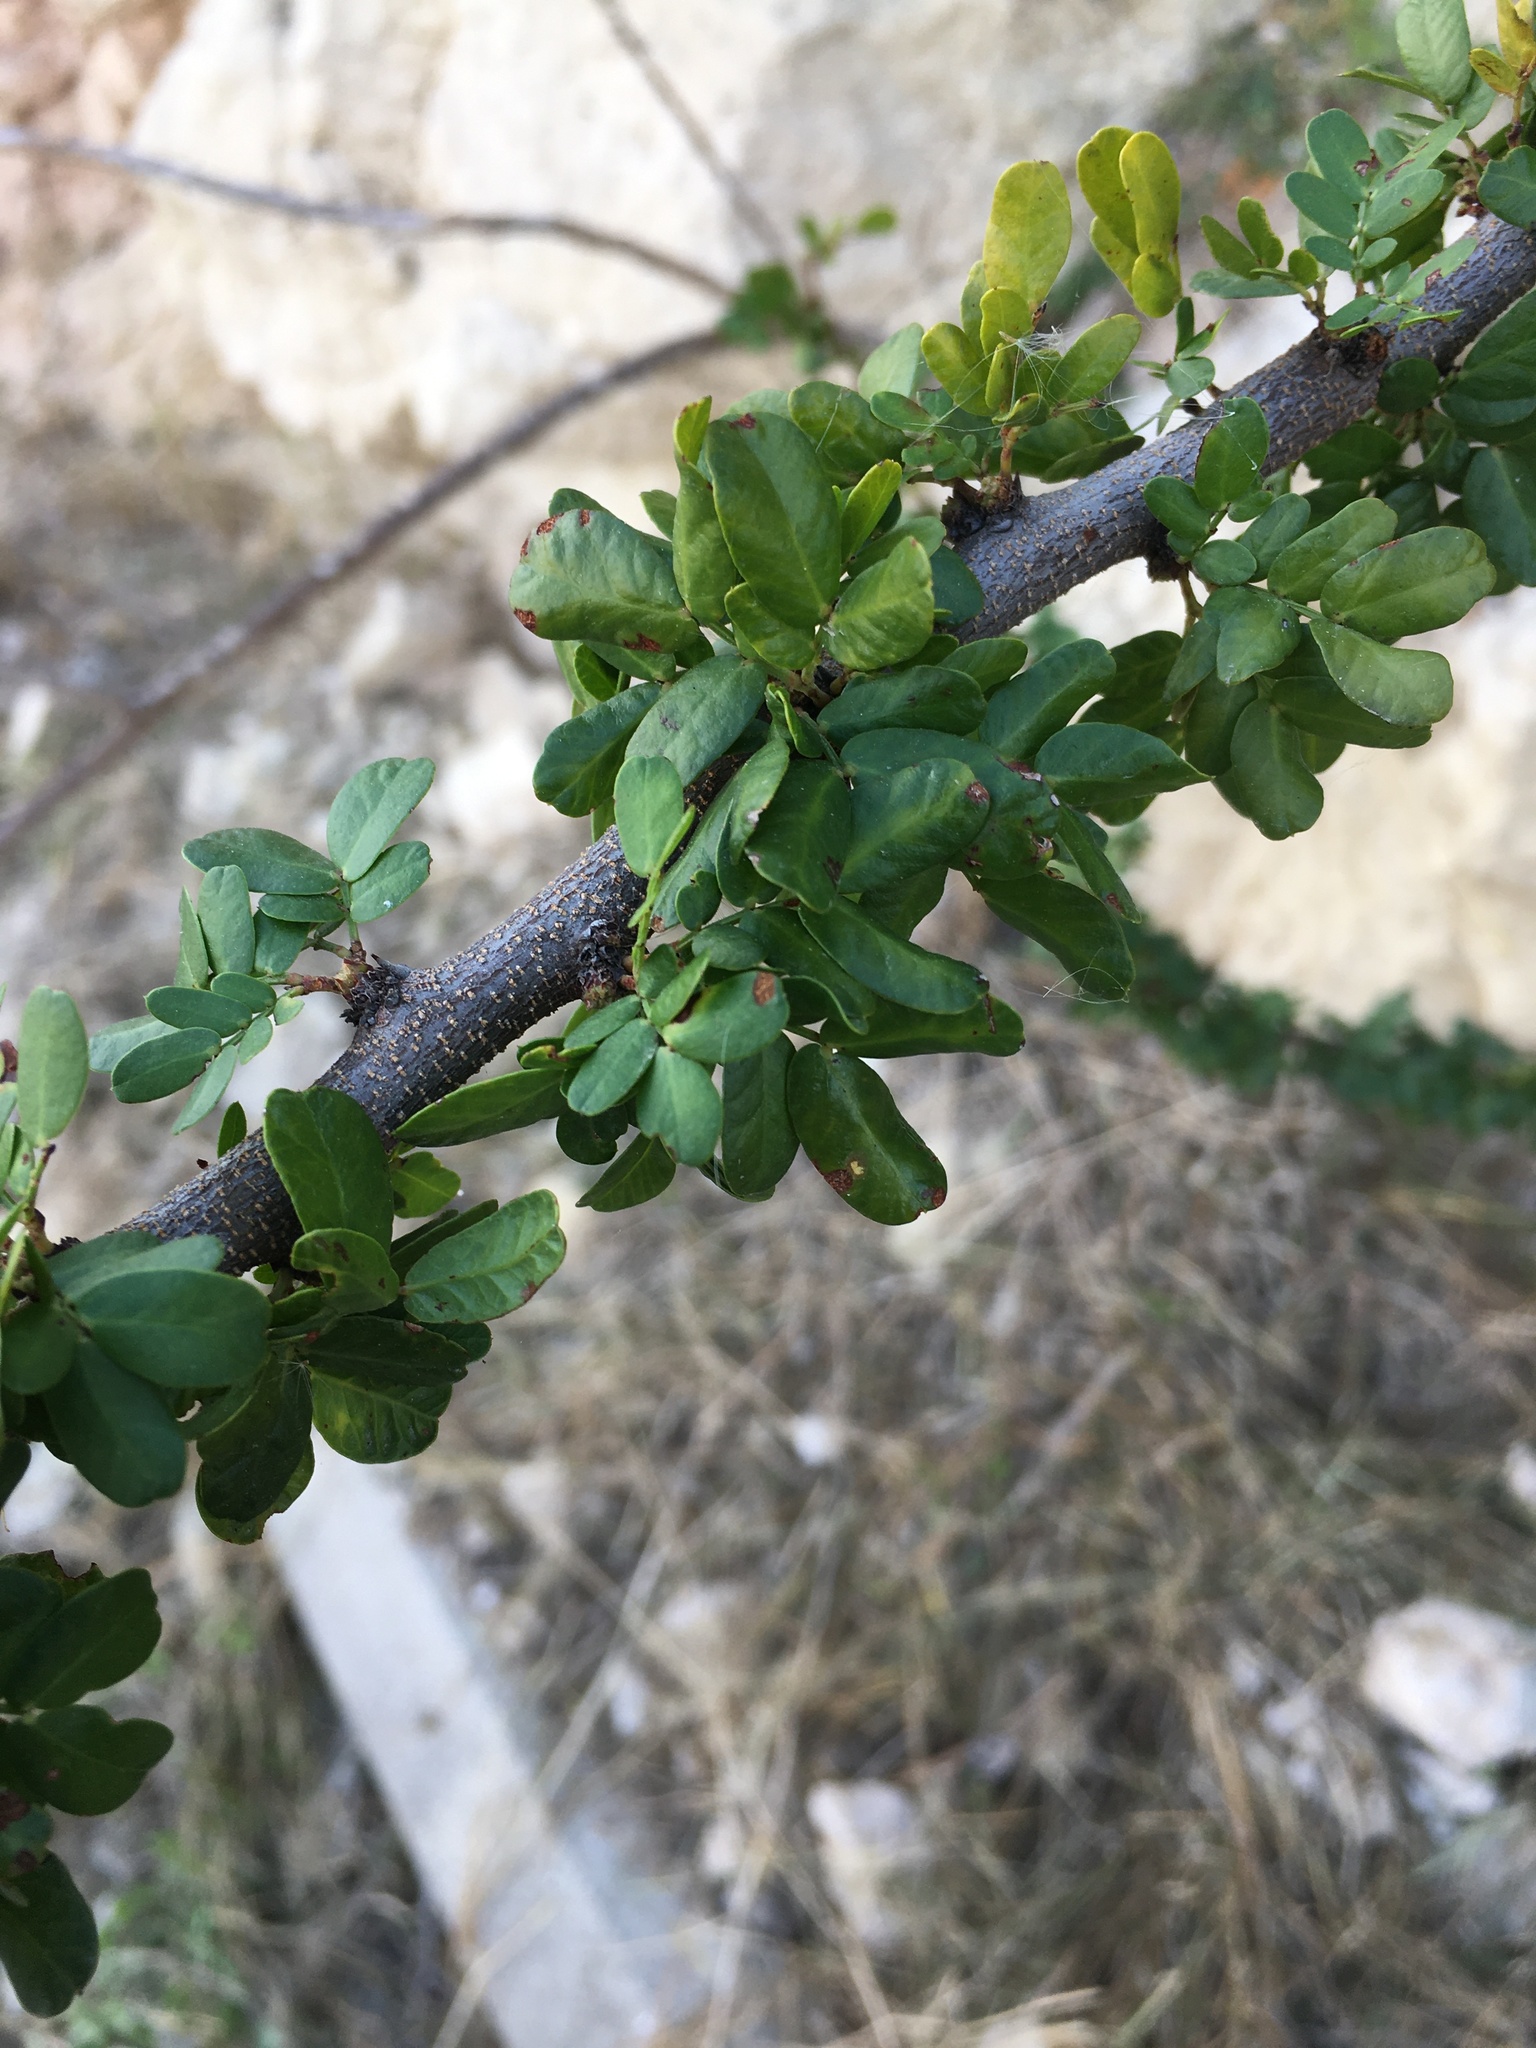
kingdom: Plantae
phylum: Tracheophyta
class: Magnoliopsida
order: Fabales
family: Fabaceae
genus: Vachellia
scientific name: Vachellia rigidula
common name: Blackbrush
